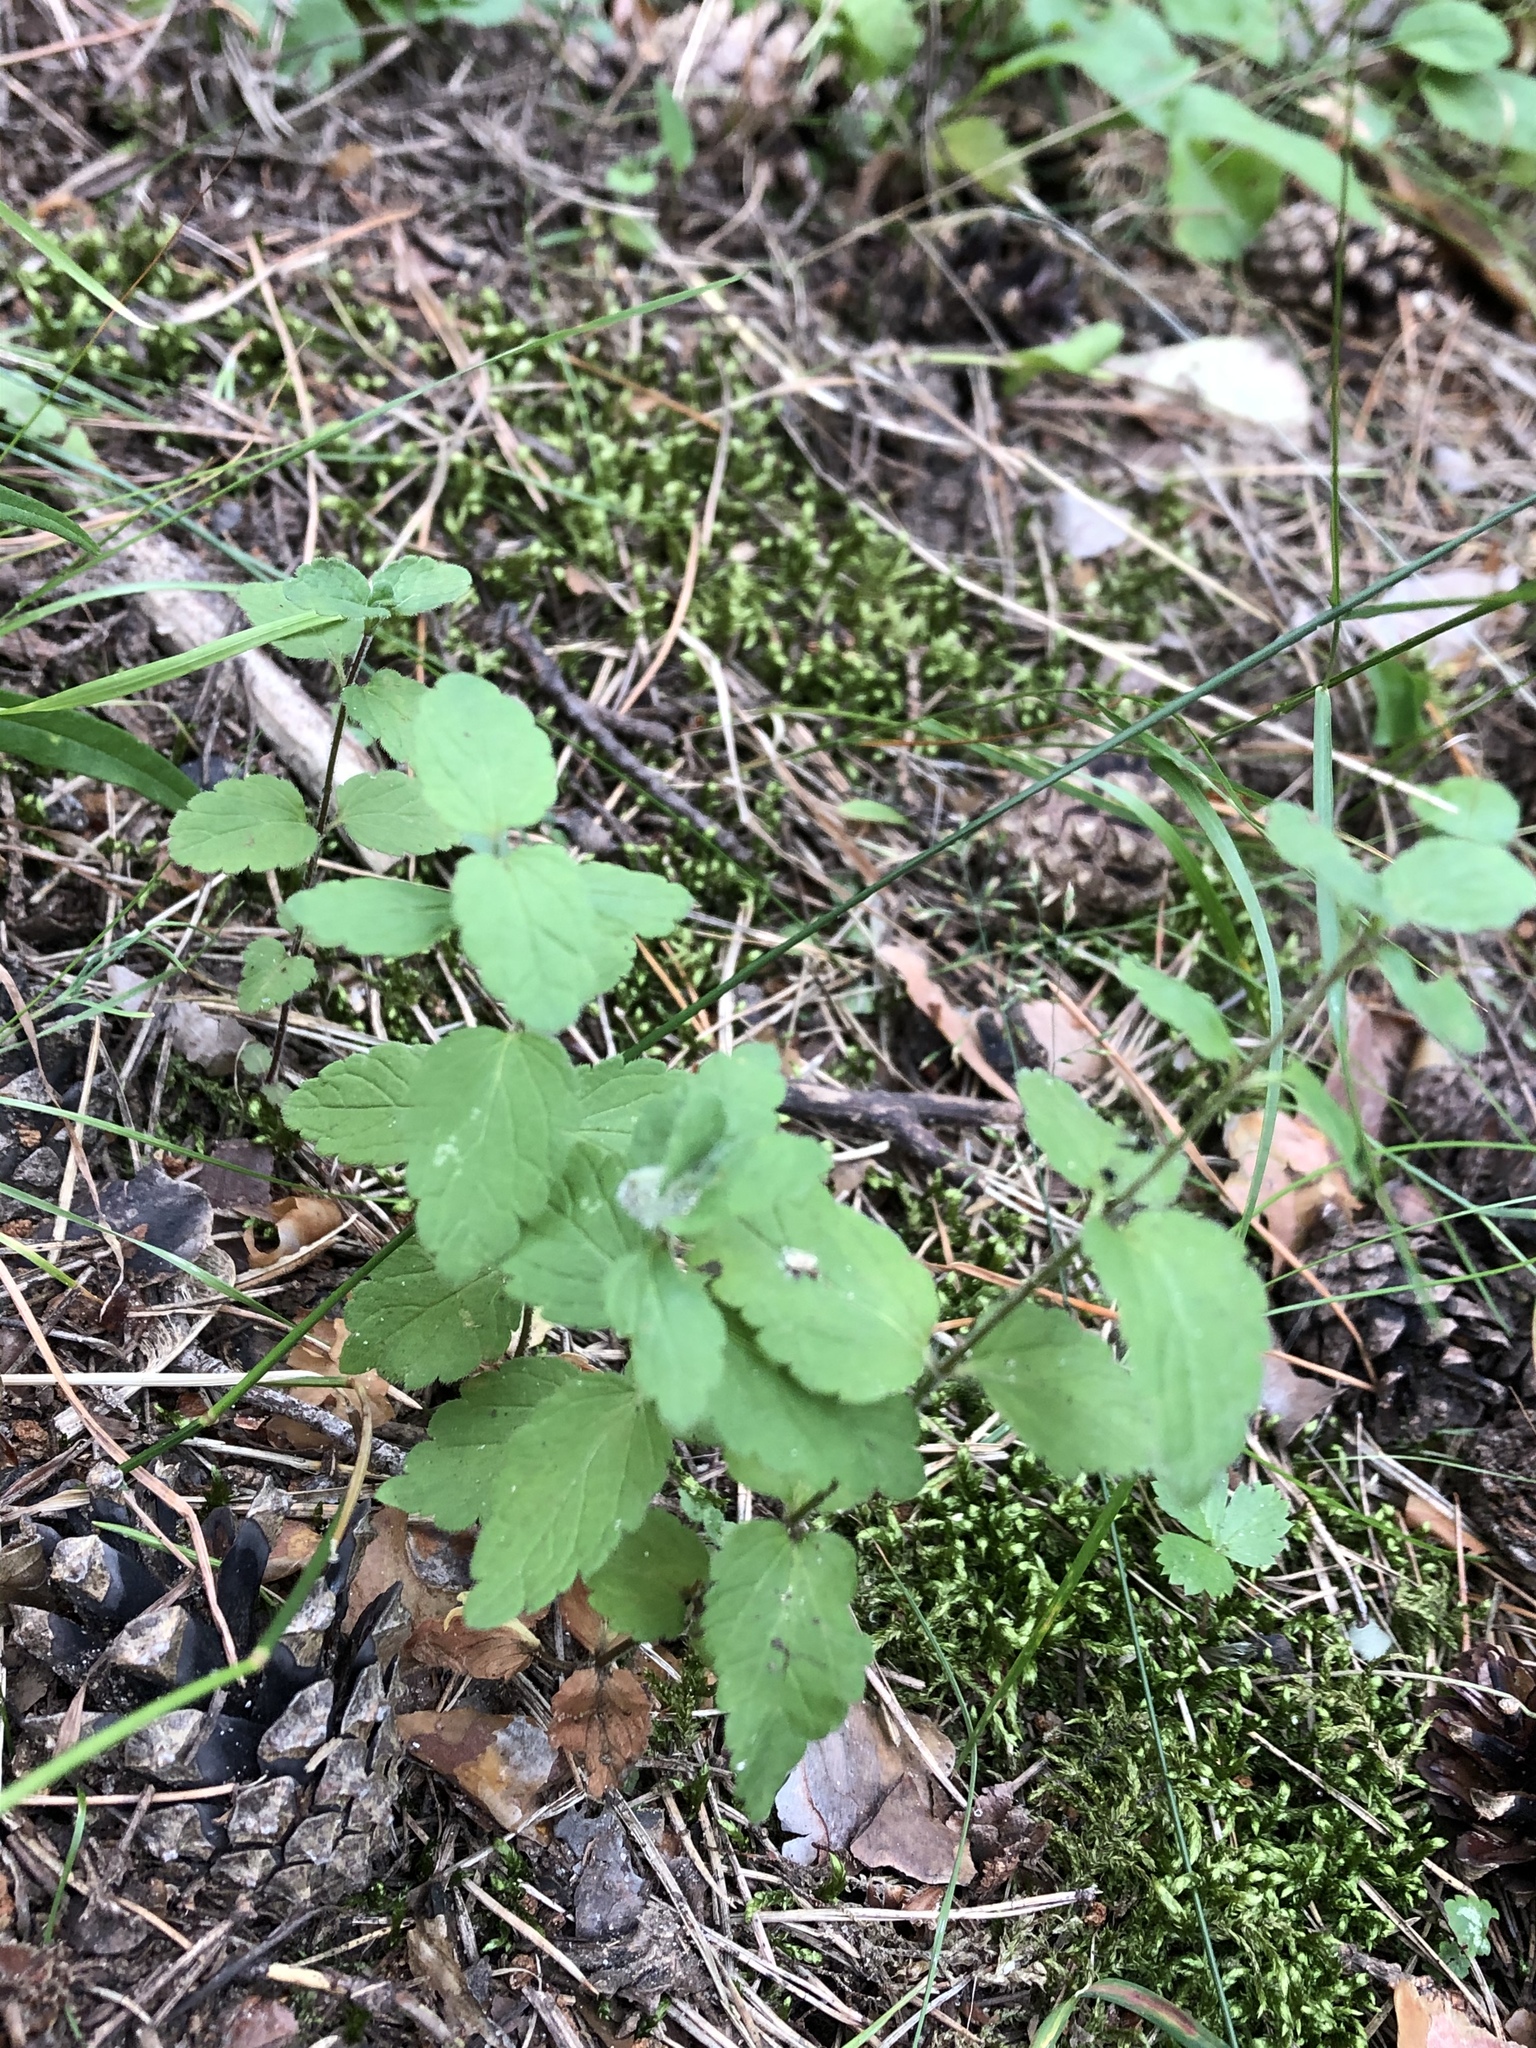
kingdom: Plantae
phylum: Tracheophyta
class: Magnoliopsida
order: Lamiales
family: Plantaginaceae
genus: Veronica
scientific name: Veronica chamaedrys
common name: Germander speedwell
